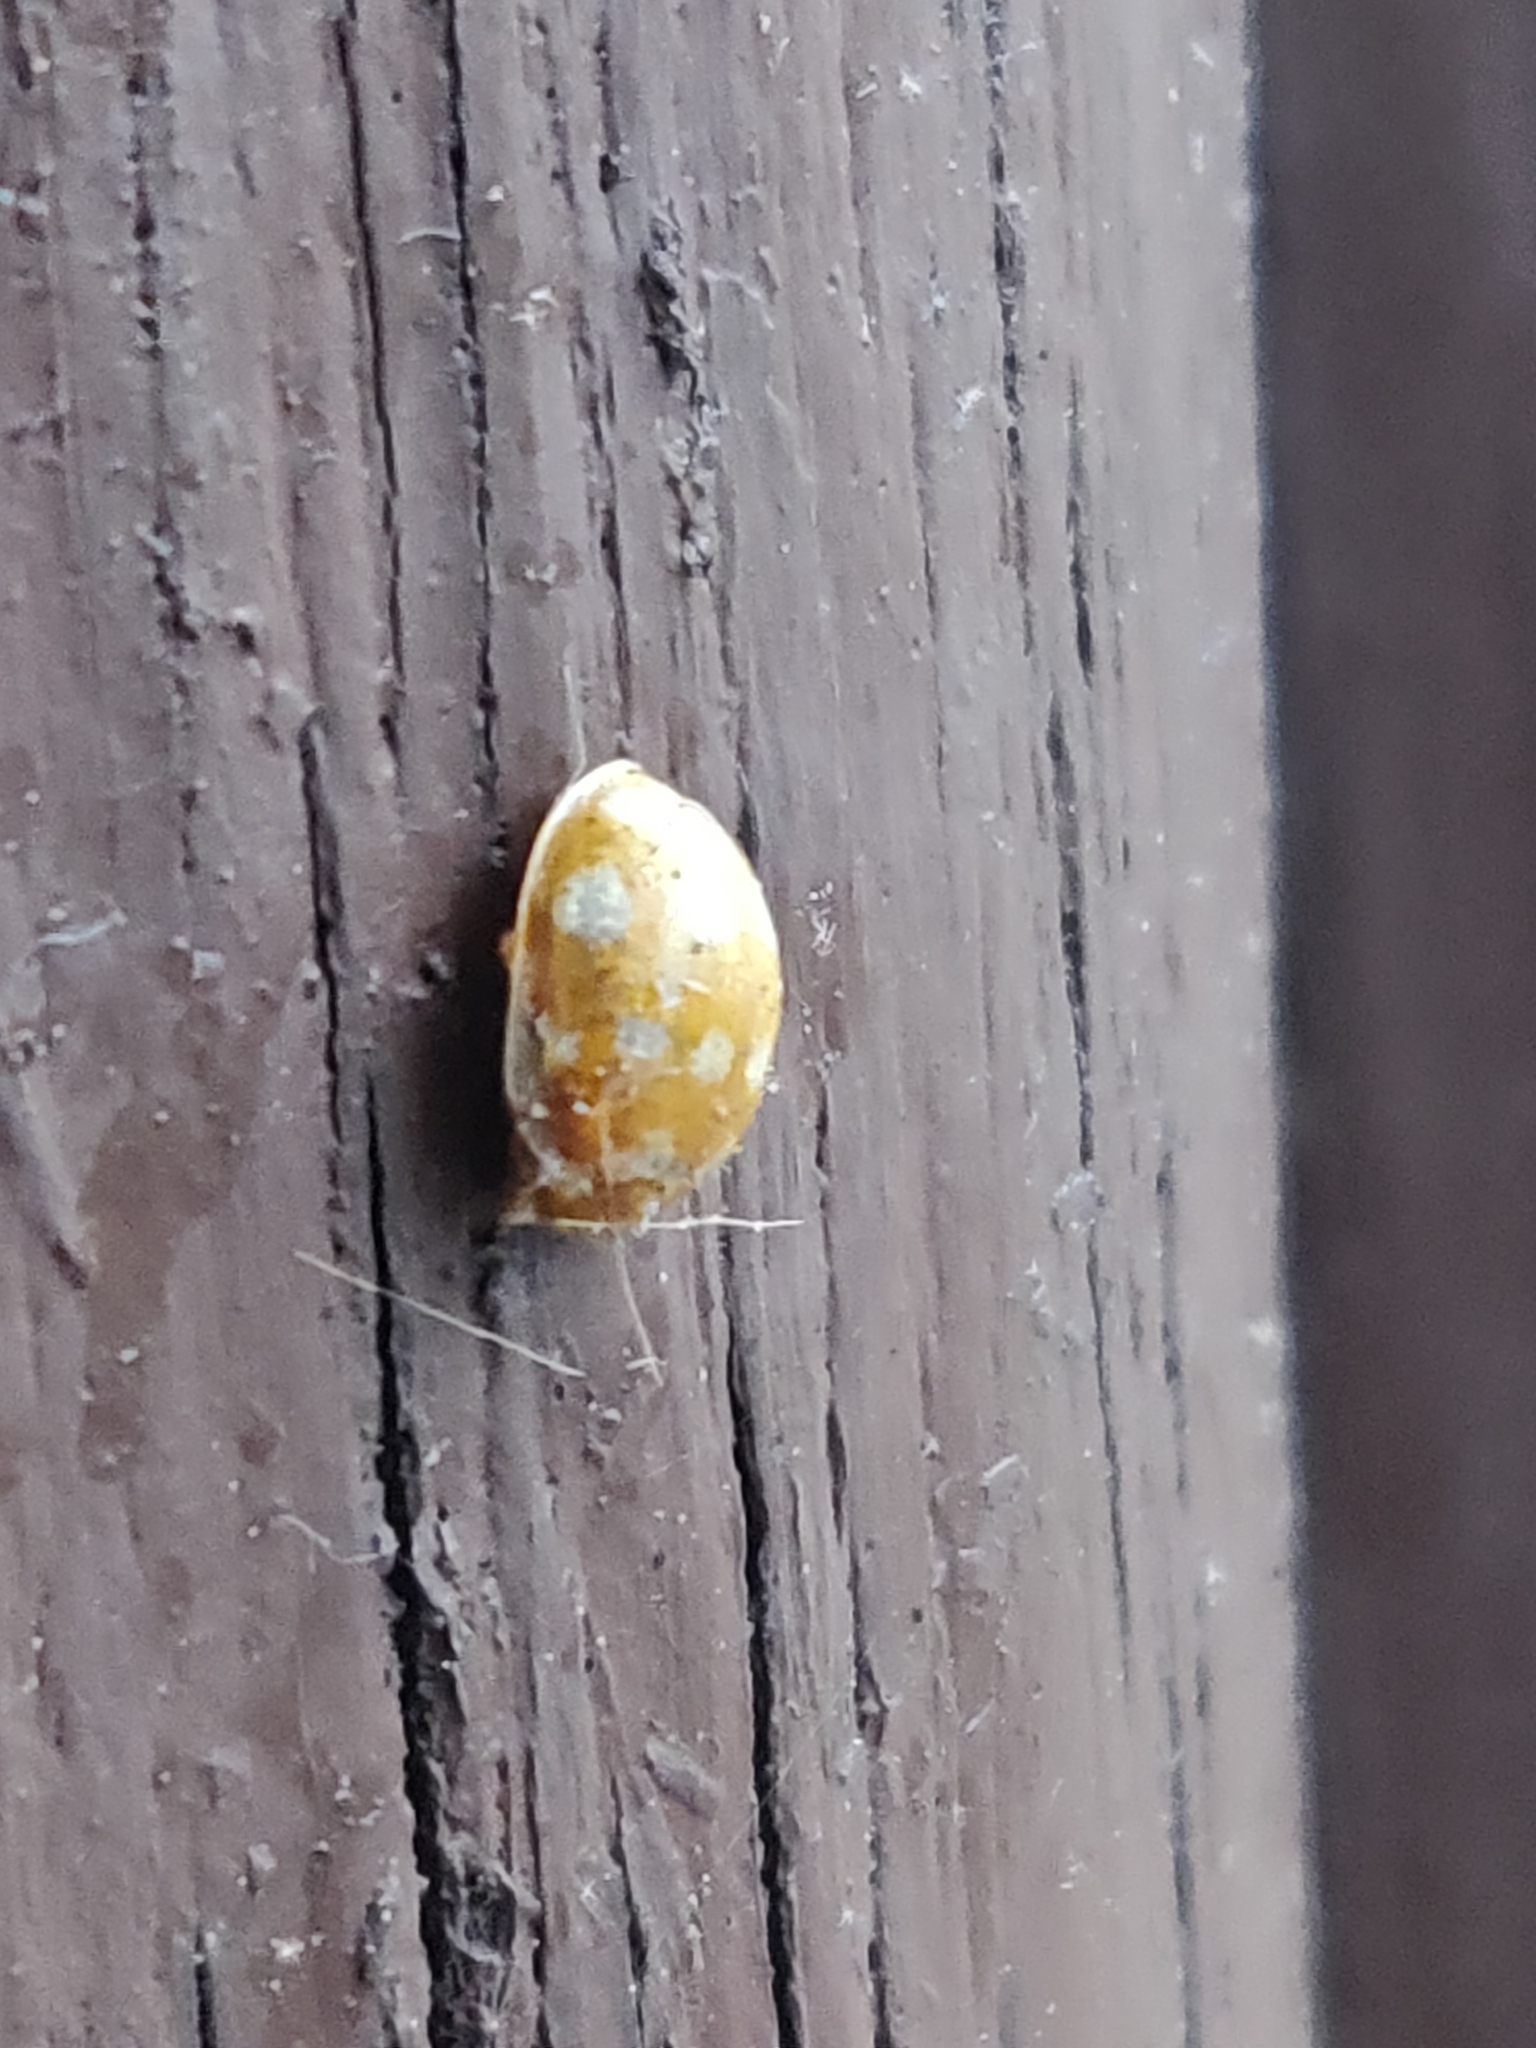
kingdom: Animalia
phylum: Arthropoda
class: Insecta
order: Coleoptera
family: Coccinellidae
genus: Calvia
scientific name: Calvia quatuordecimguttata
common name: Cream-spot ladybird
